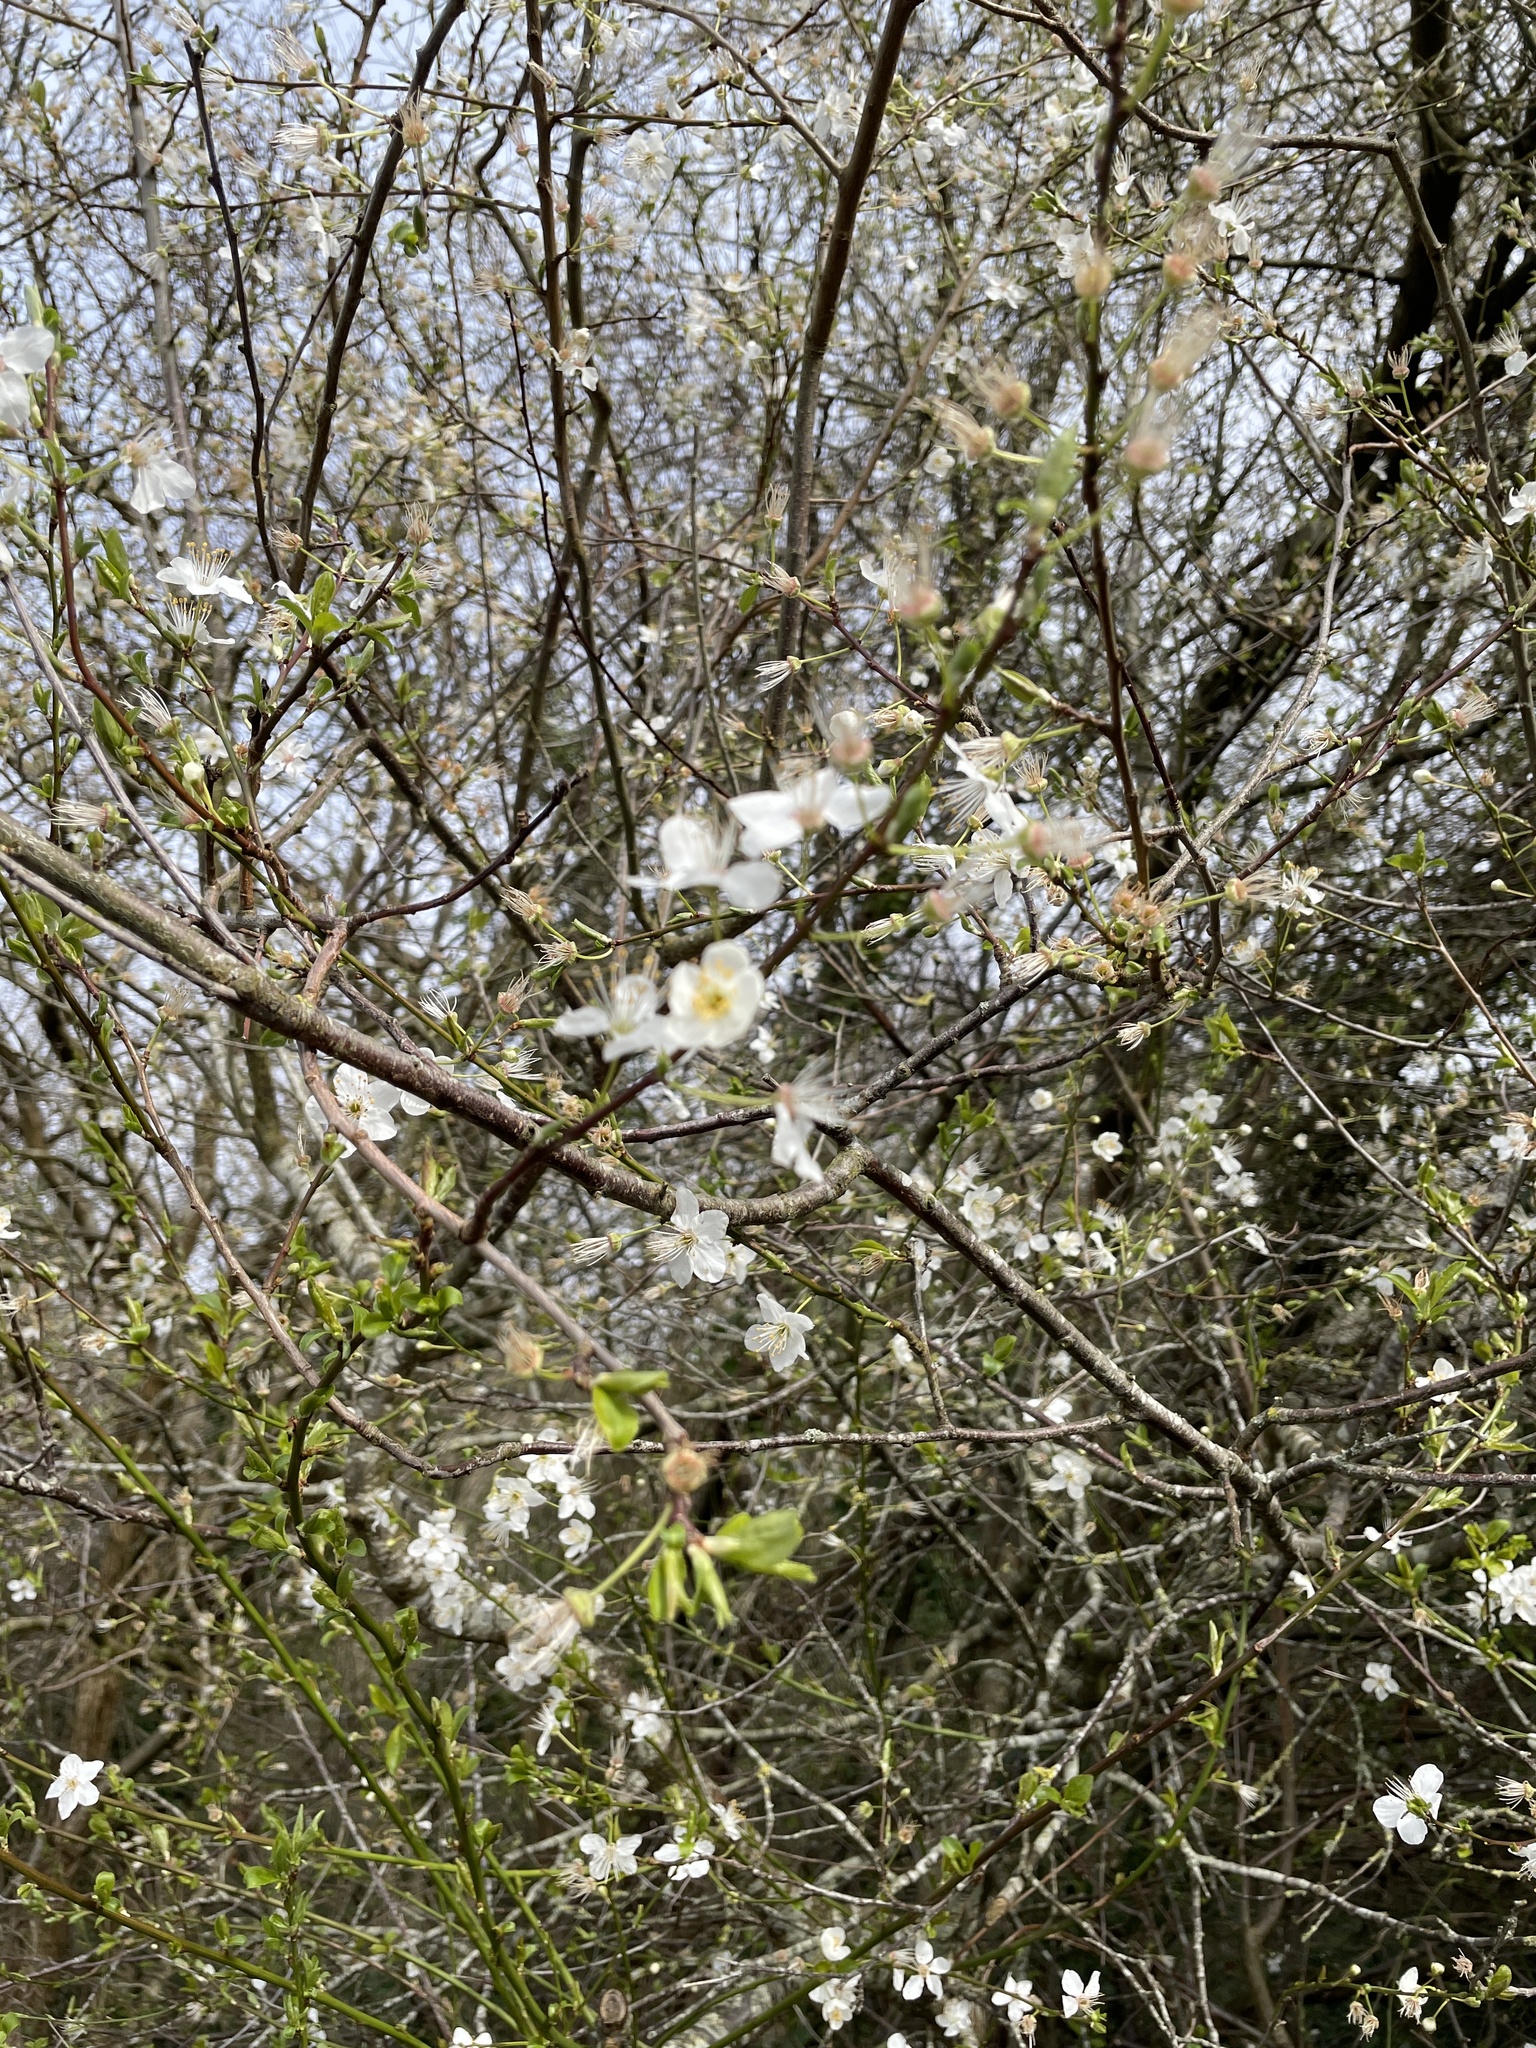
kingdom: Plantae
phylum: Tracheophyta
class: Magnoliopsida
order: Rosales
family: Rosaceae
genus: Prunus
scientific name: Prunus cerasifera
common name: Cherry plum
